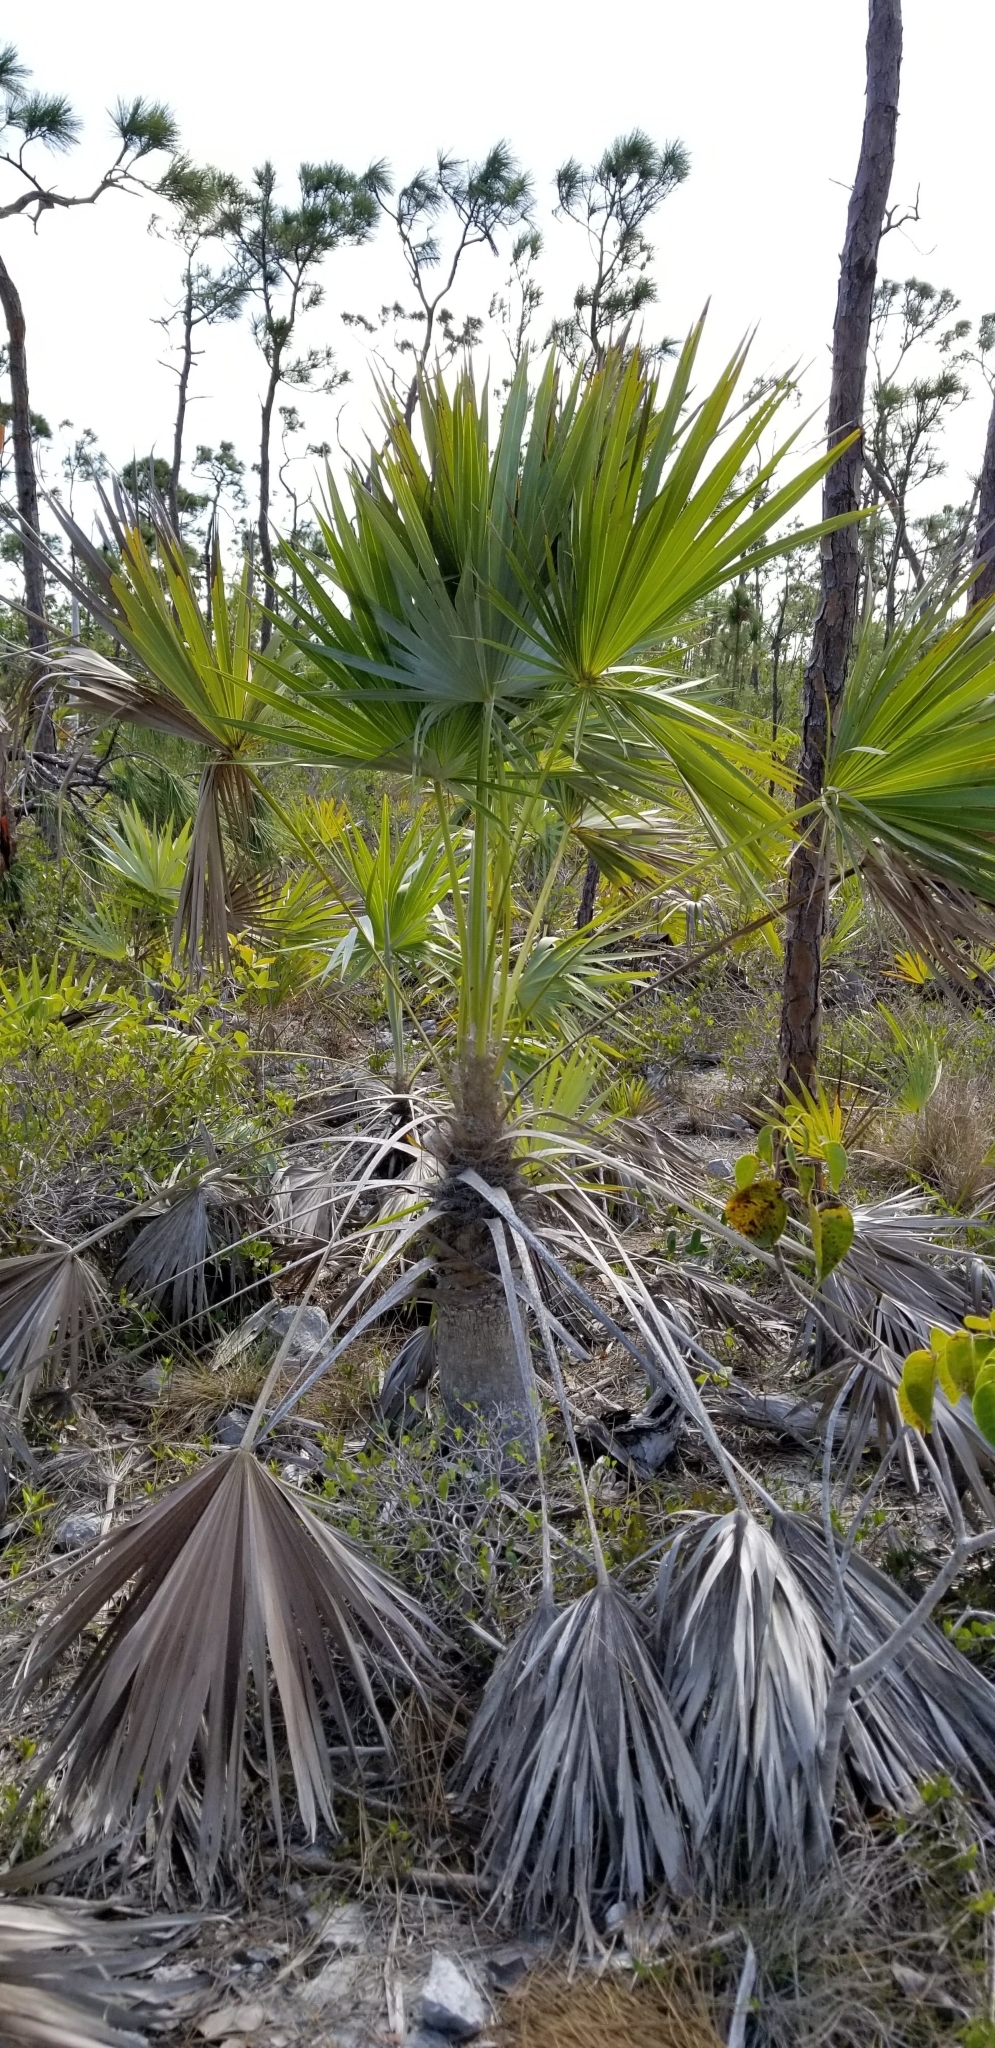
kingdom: Plantae
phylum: Tracheophyta
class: Liliopsida
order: Arecales
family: Arecaceae
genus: Leucothrinax
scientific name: Leucothrinax morrisii
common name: Key palm
